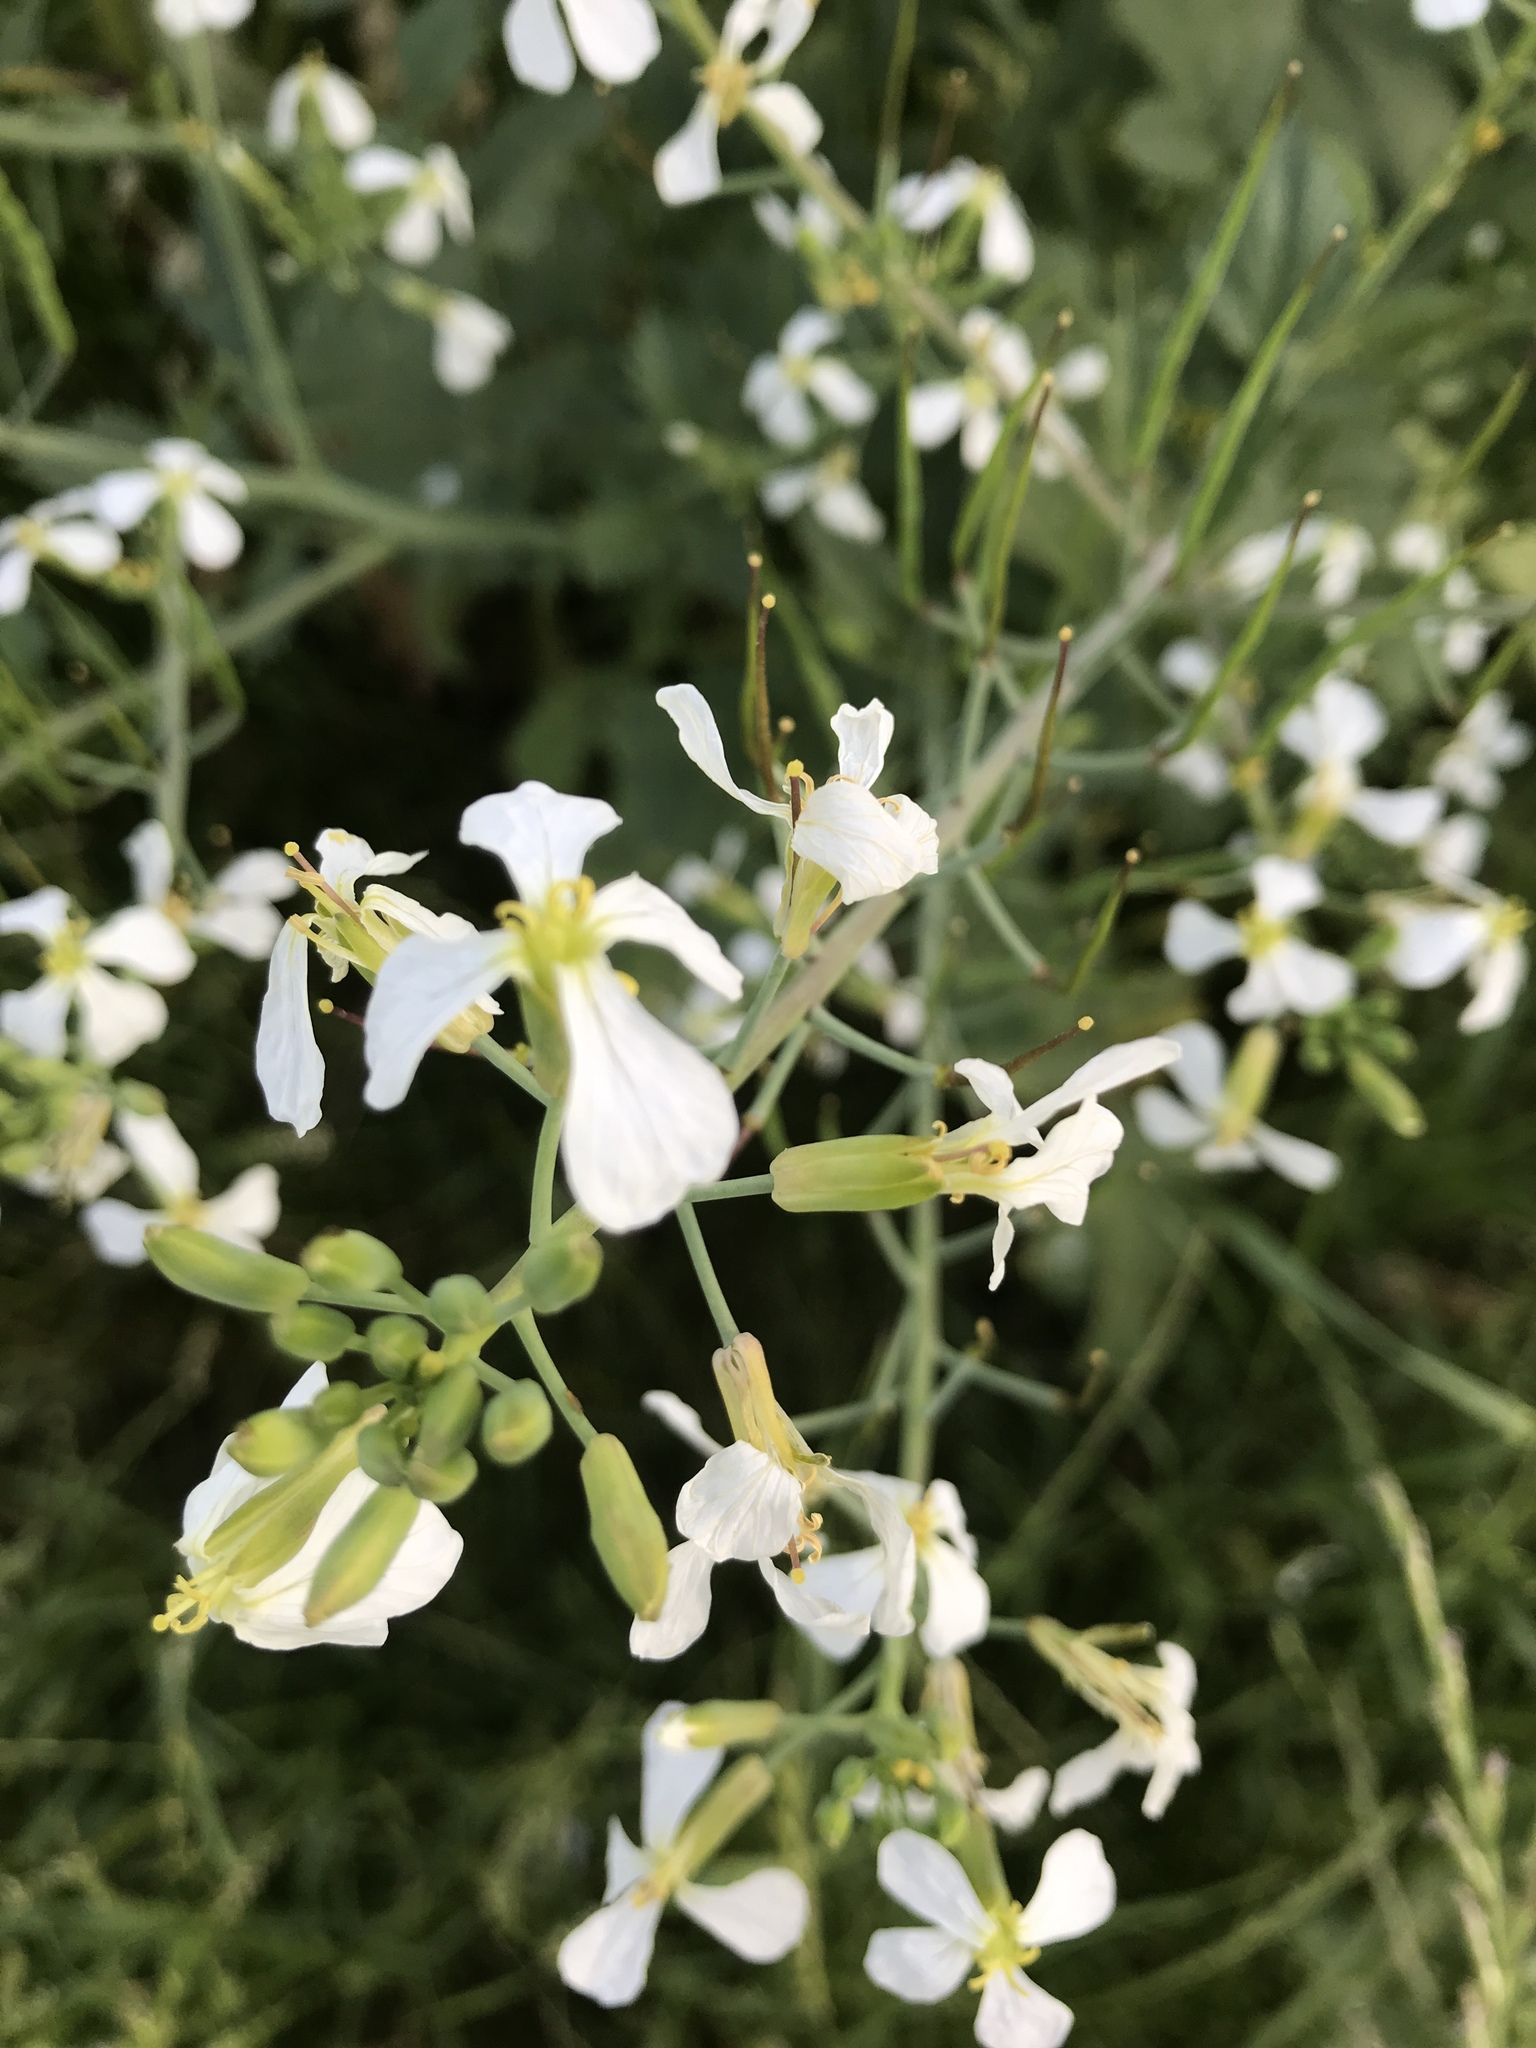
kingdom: Plantae
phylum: Tracheophyta
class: Magnoliopsida
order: Brassicales
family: Brassicaceae
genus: Raphanus
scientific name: Raphanus sativus
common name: Cultivated radish
